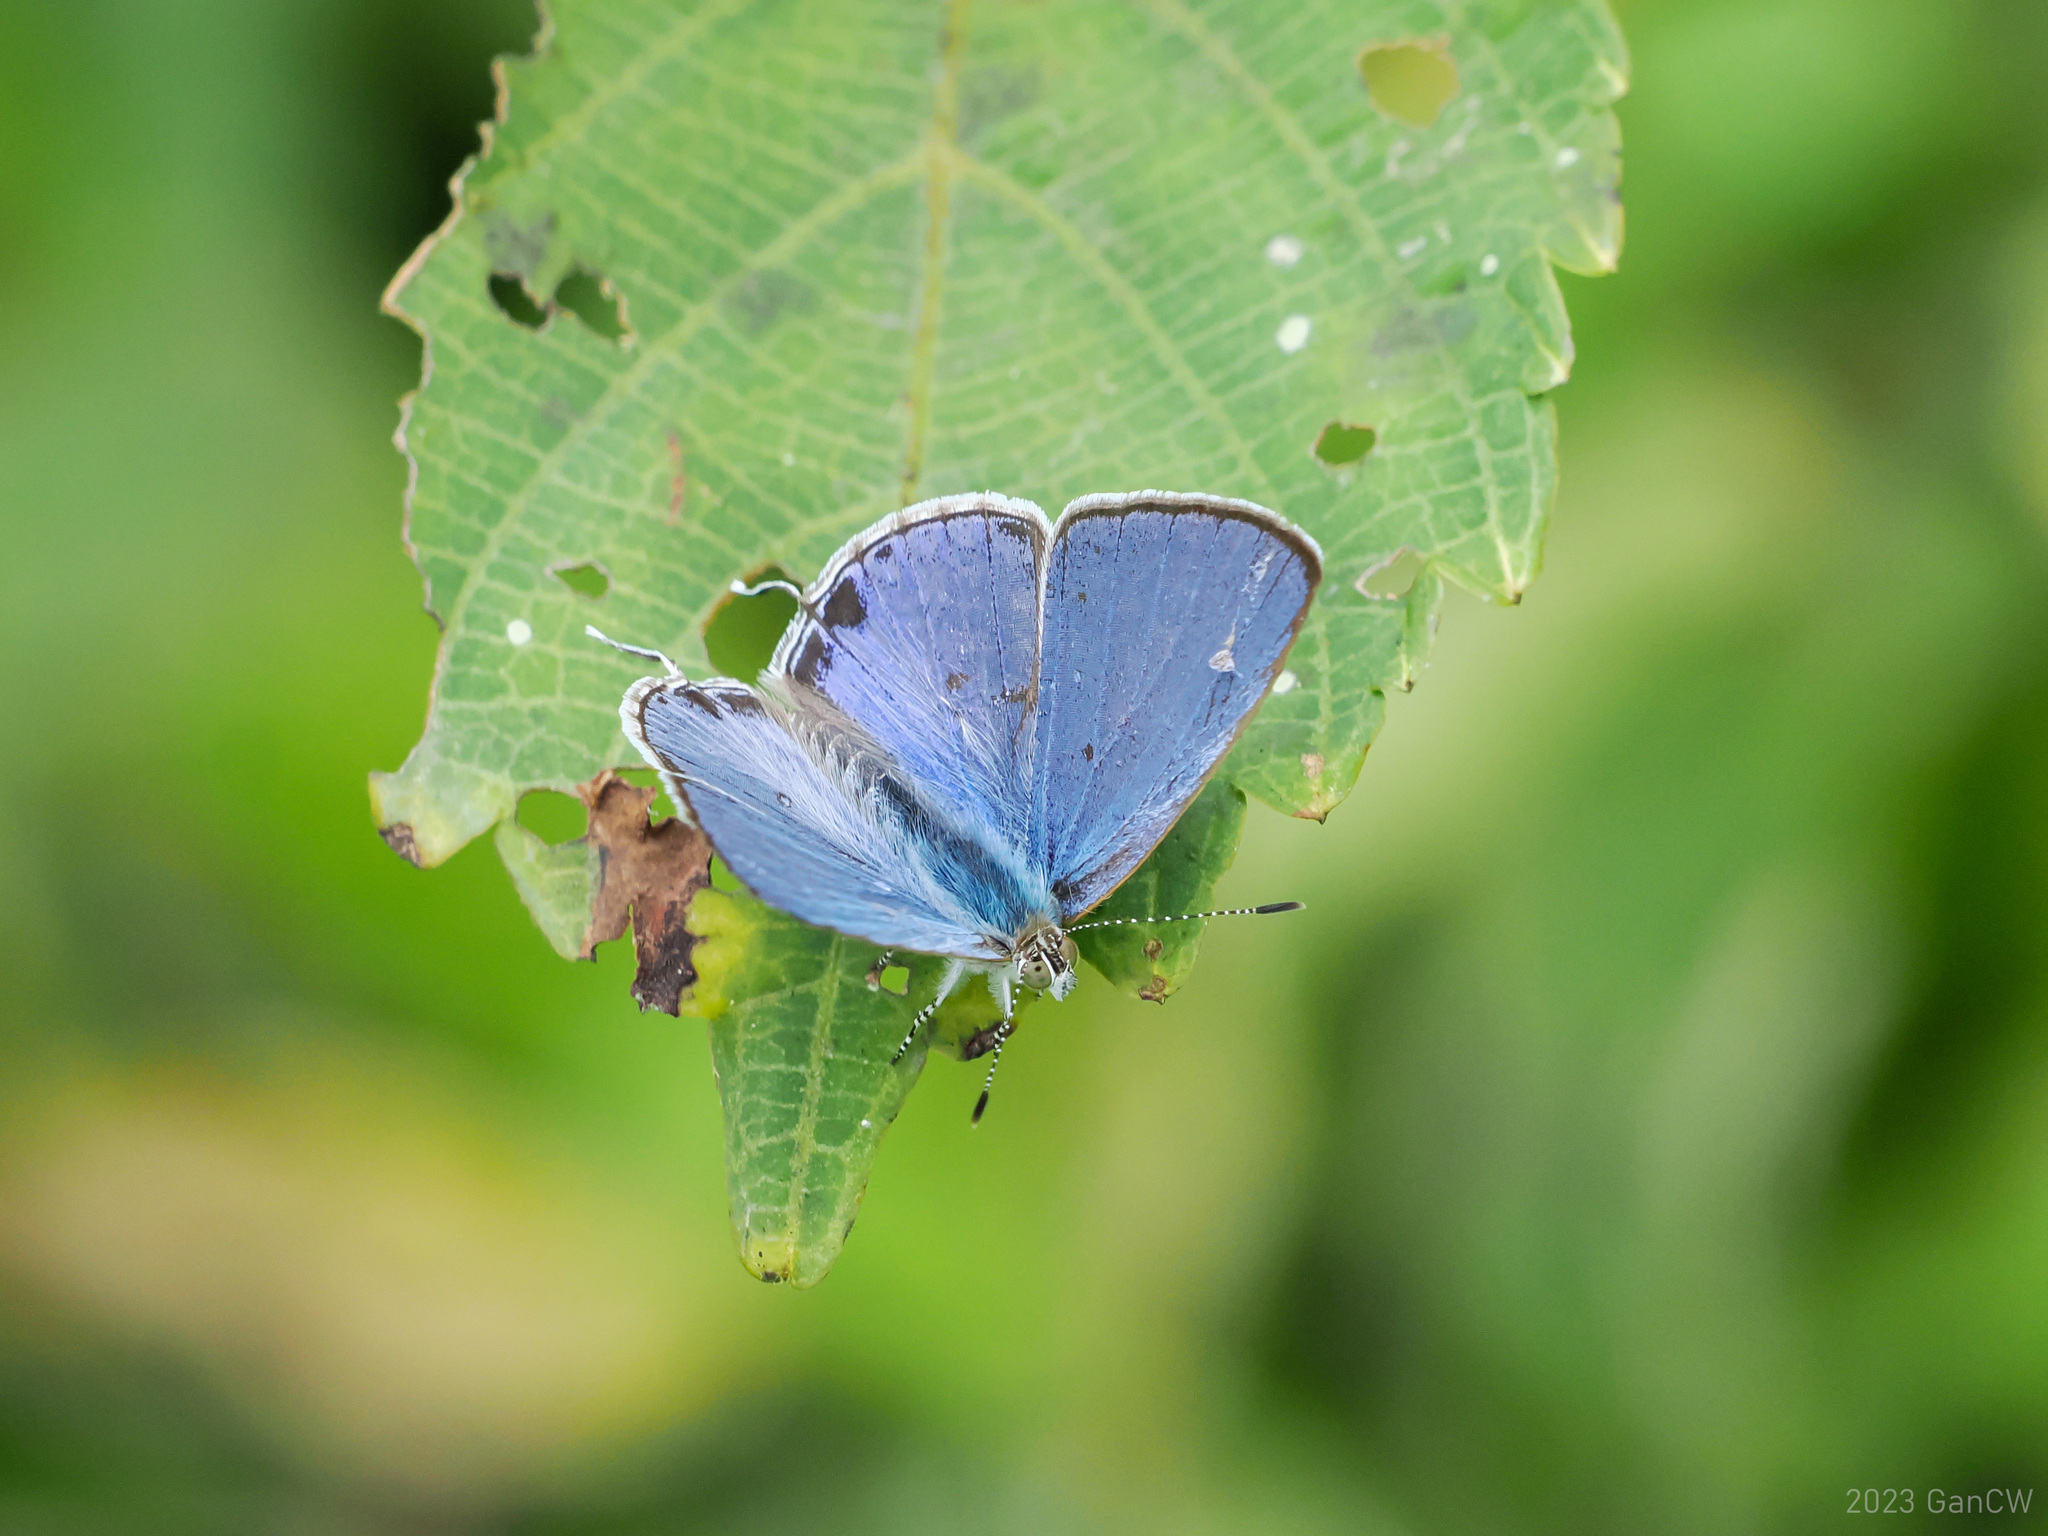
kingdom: Animalia
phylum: Arthropoda
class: Insecta
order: Lepidoptera
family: Lycaenidae
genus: Catopyrops
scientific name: Catopyrops ancyra
